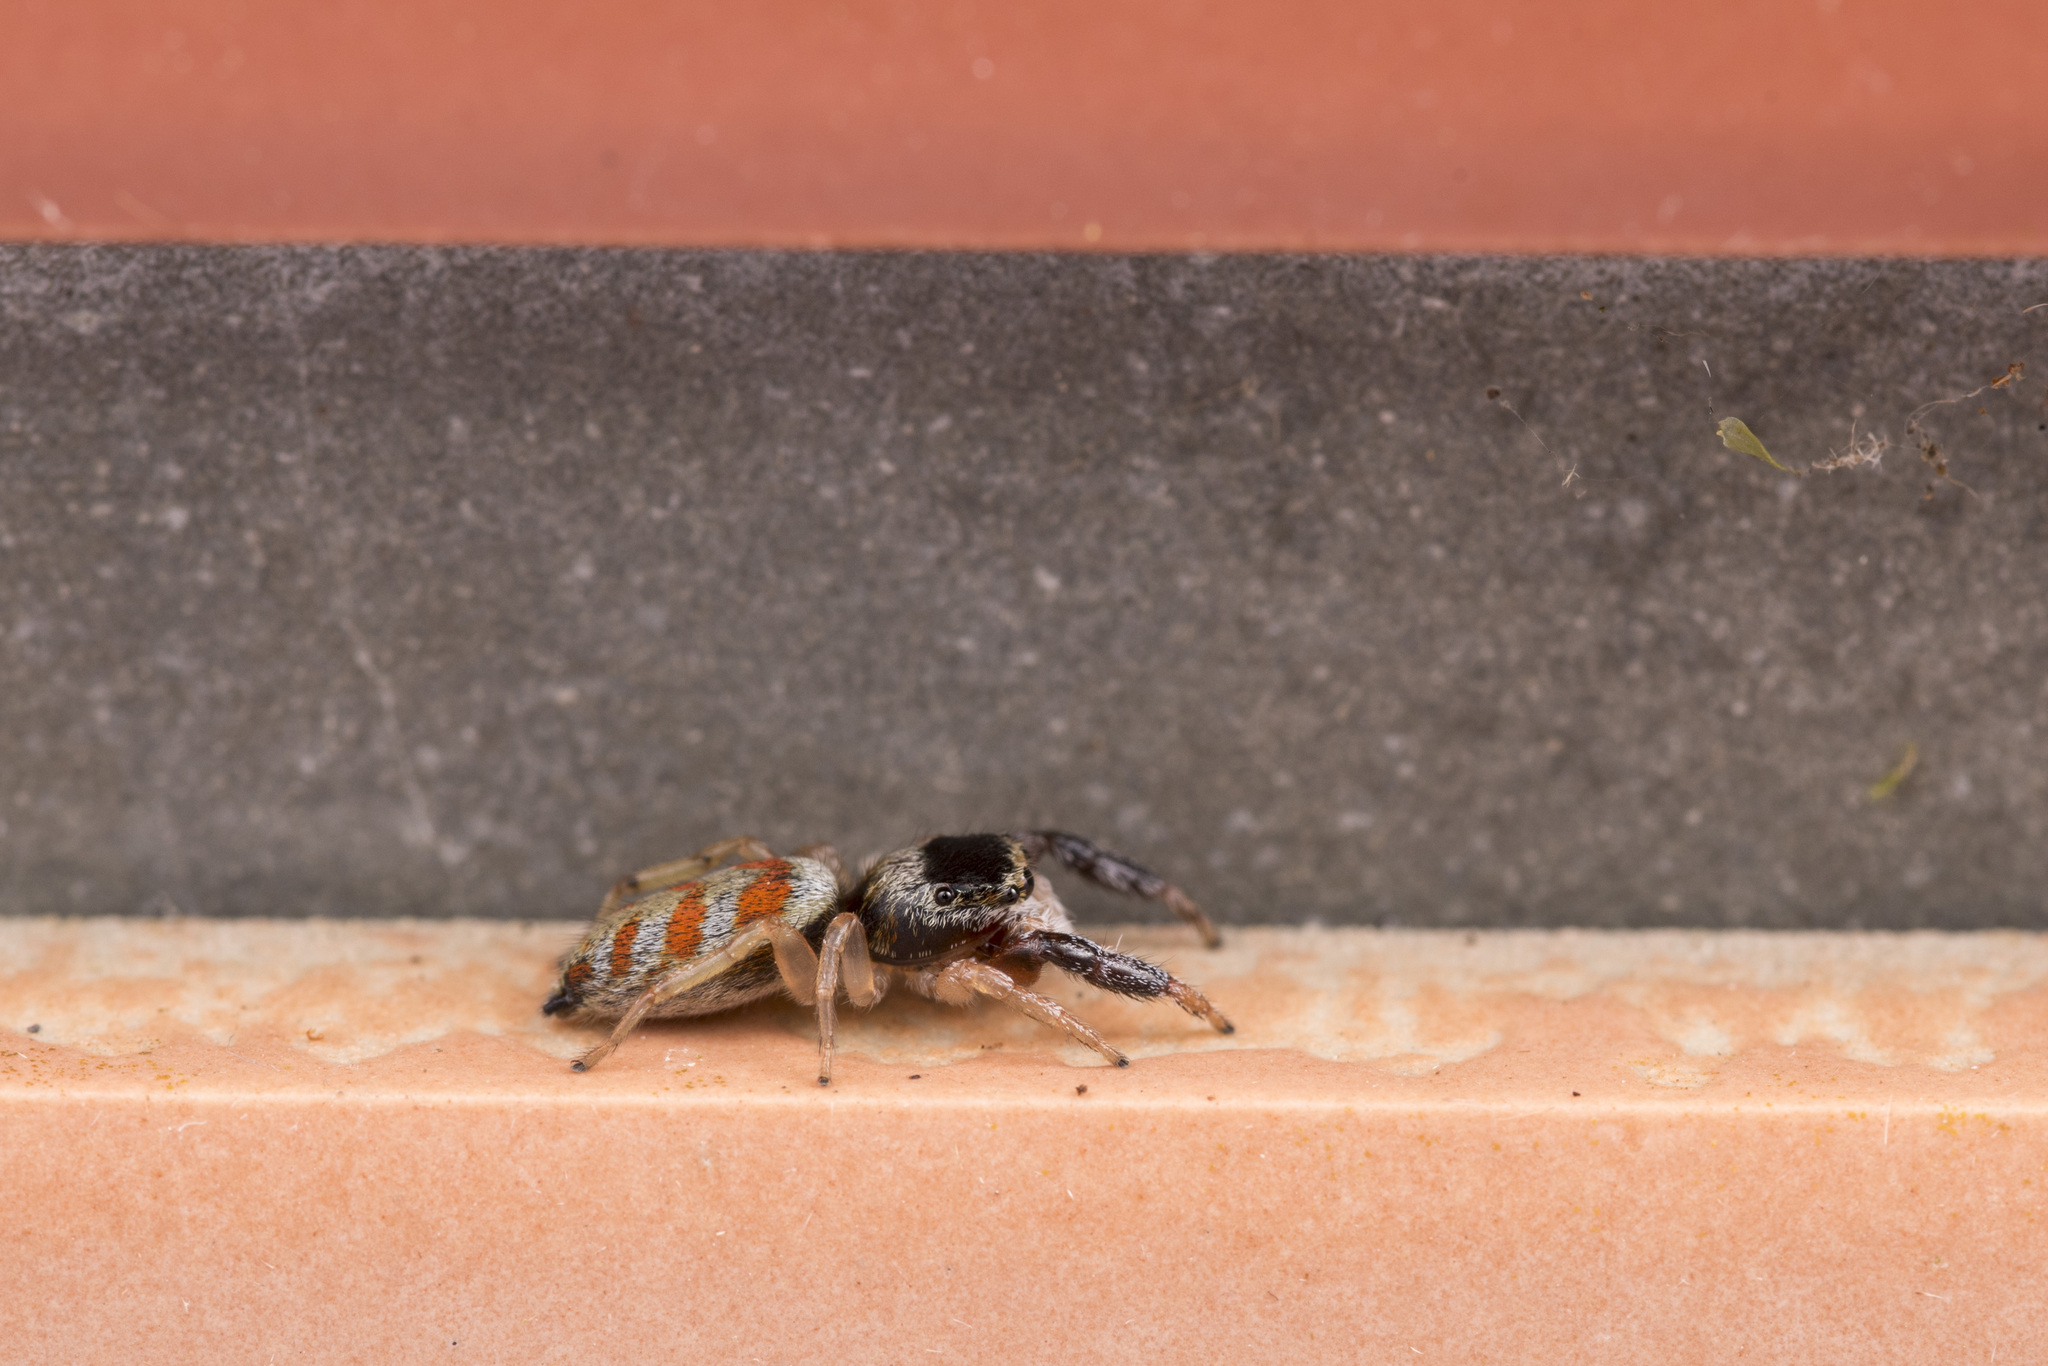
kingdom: Animalia
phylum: Arthropoda
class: Arachnida
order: Araneae
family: Salticidae
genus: Marpissa
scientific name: Marpissa pulla
